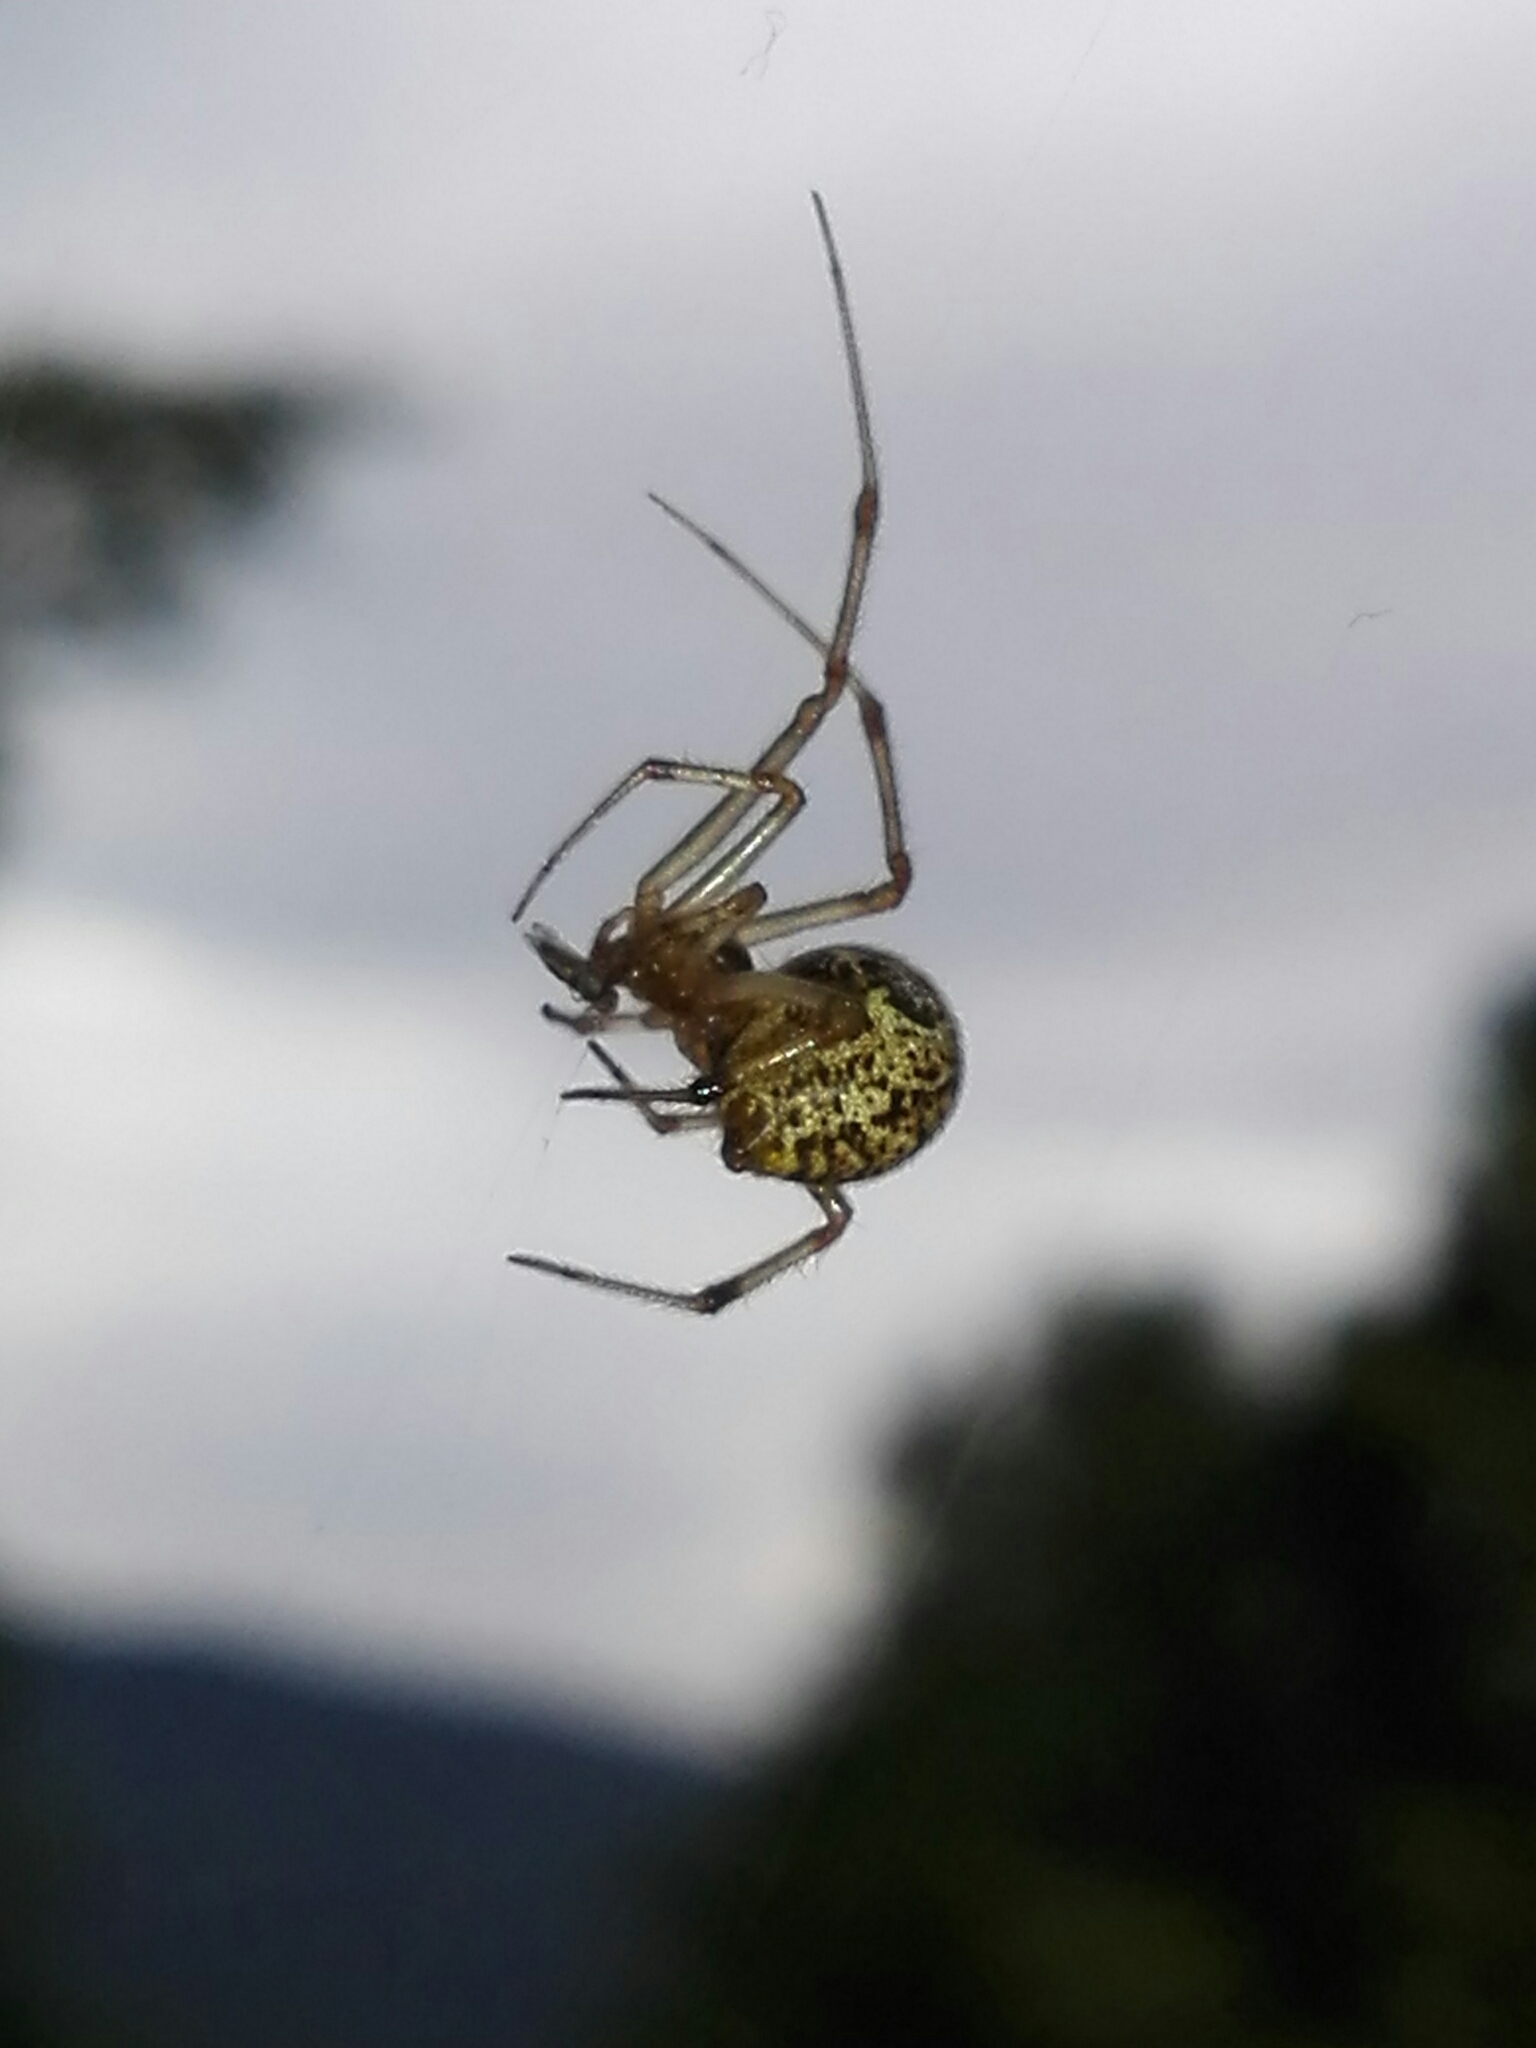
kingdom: Animalia
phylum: Arthropoda
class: Arachnida
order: Araneae
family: Theridiidae
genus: Parasteatoda
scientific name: Parasteatoda tepidariorum
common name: Common house spider
